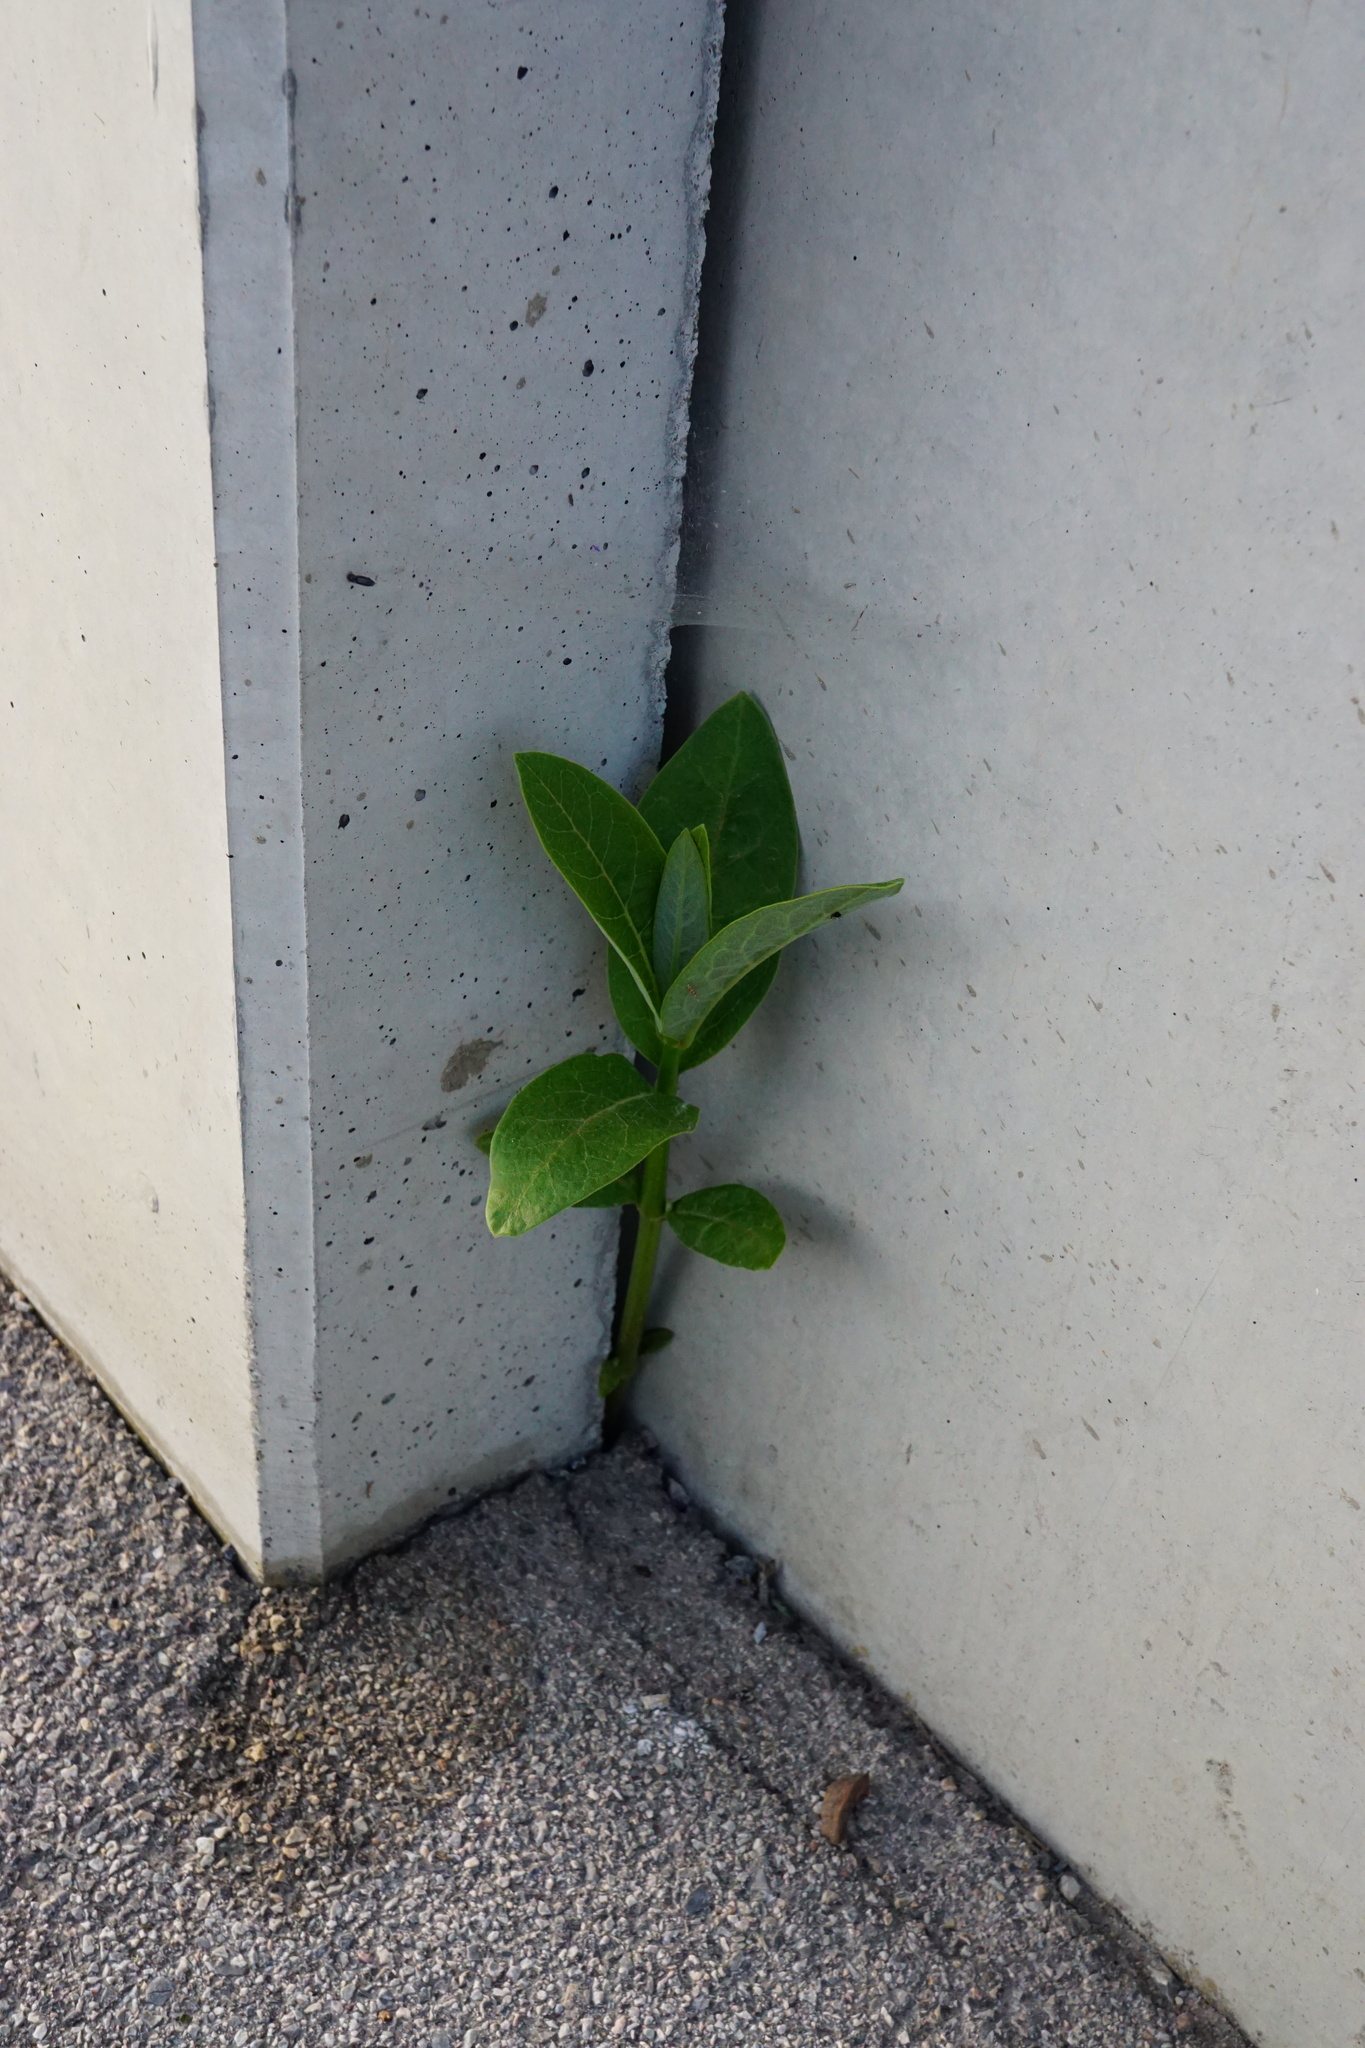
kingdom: Plantae
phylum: Tracheophyta
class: Magnoliopsida
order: Gentianales
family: Apocynaceae
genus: Asclepias
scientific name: Asclepias syriaca
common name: Common milkweed
